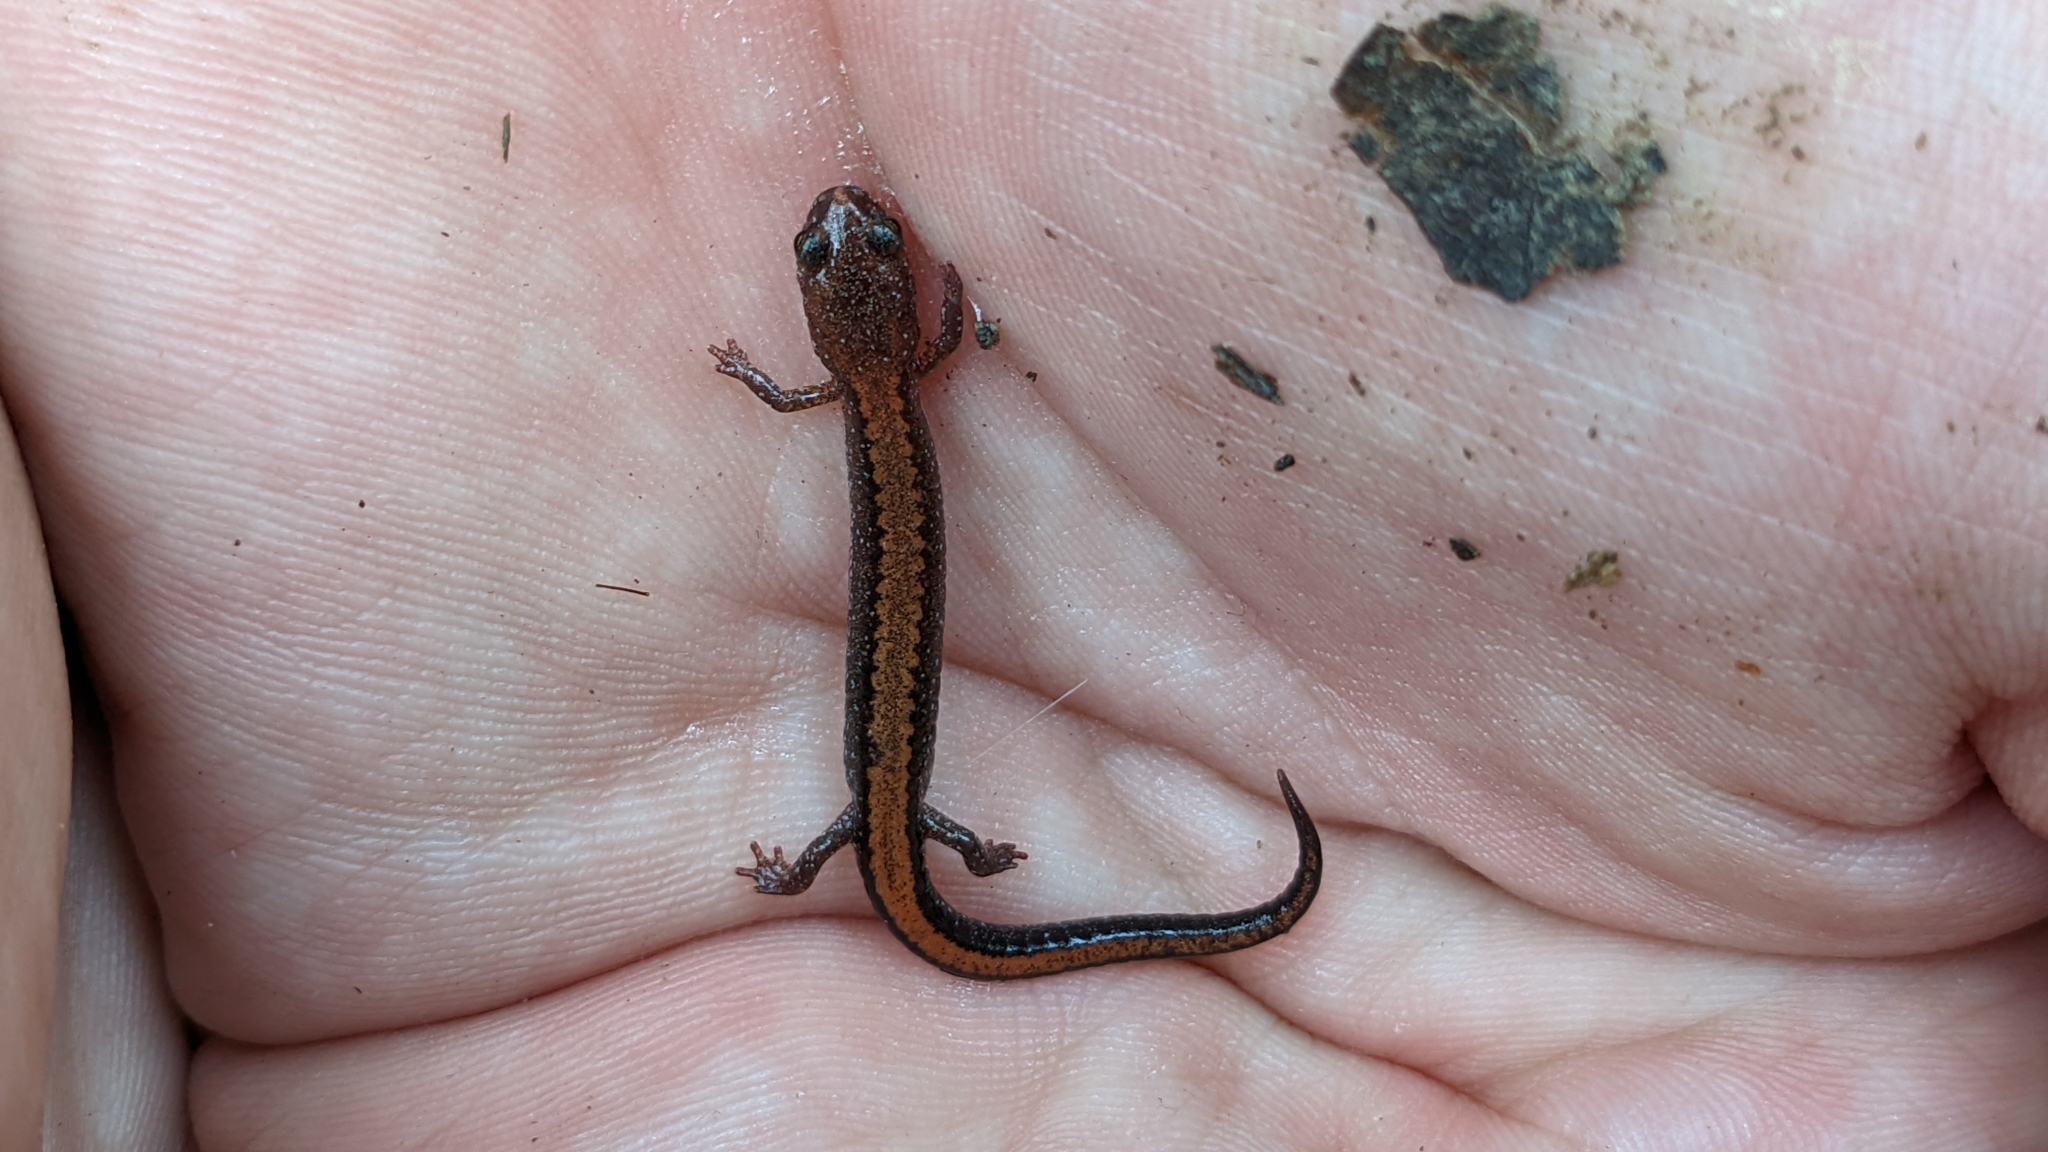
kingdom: Animalia
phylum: Chordata
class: Amphibia
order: Caudata
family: Plethodontidae
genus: Plethodon
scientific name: Plethodon serratus
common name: Southern red-backed salamander
